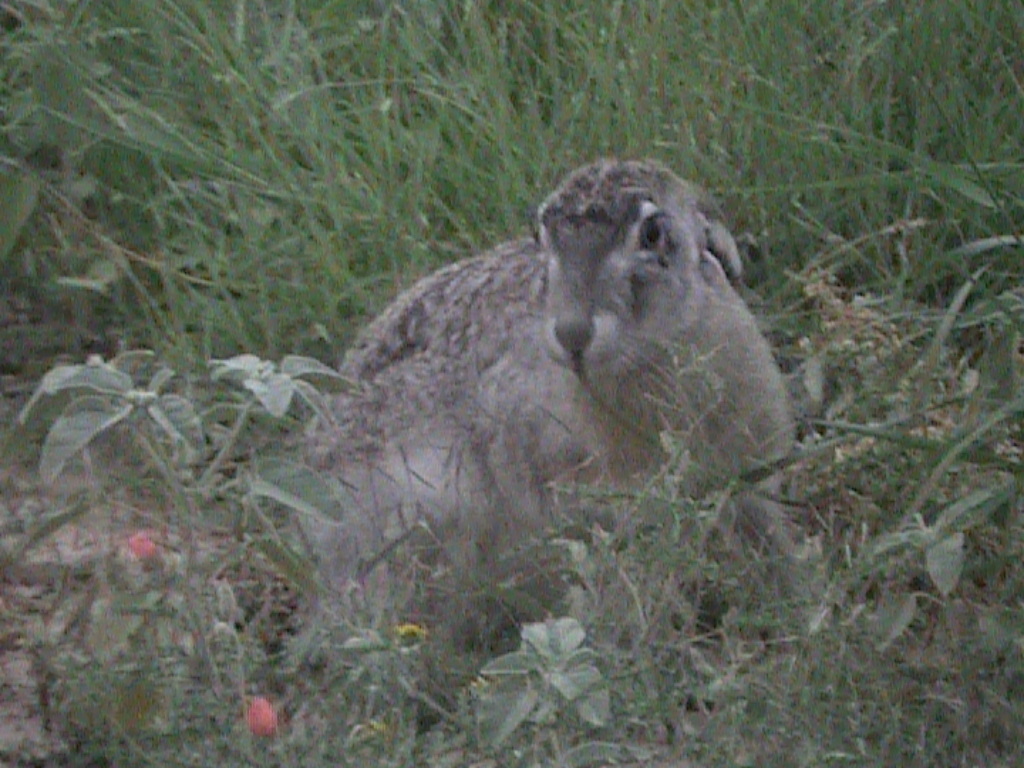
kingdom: Animalia
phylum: Chordata
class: Mammalia
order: Lagomorpha
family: Leporidae
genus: Lepus
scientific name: Lepus californicus
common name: Black-tailed jackrabbit
